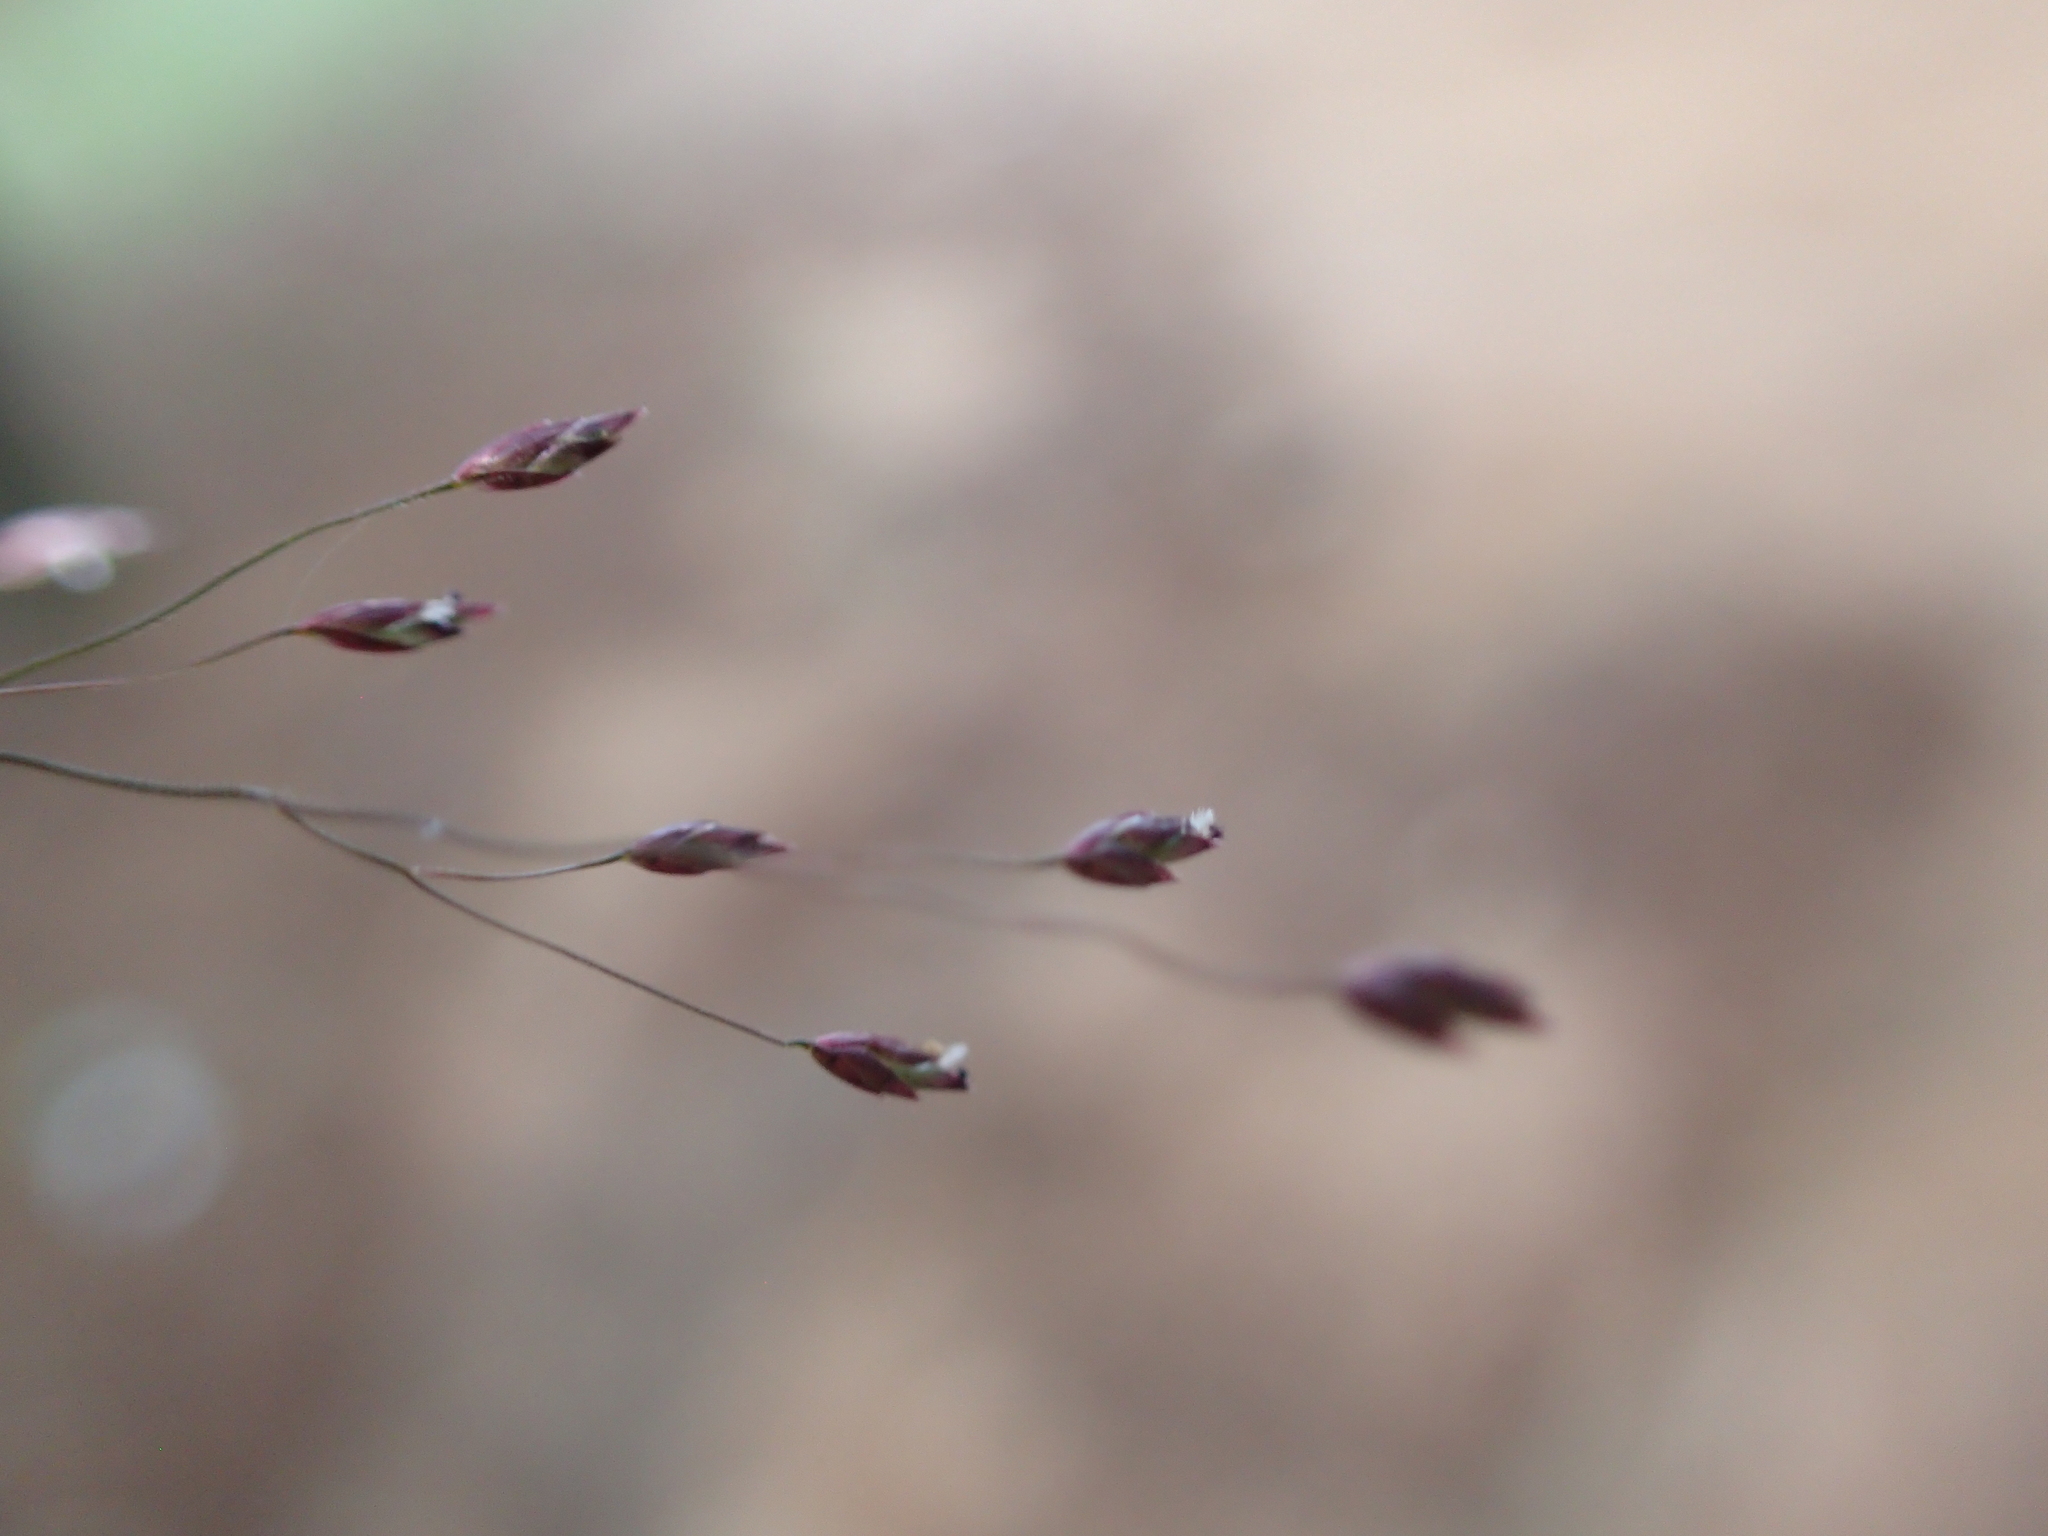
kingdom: Plantae
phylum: Tracheophyta
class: Liliopsida
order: Poales
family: Poaceae
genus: Eragrostis
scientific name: Eragrostis macilenta
